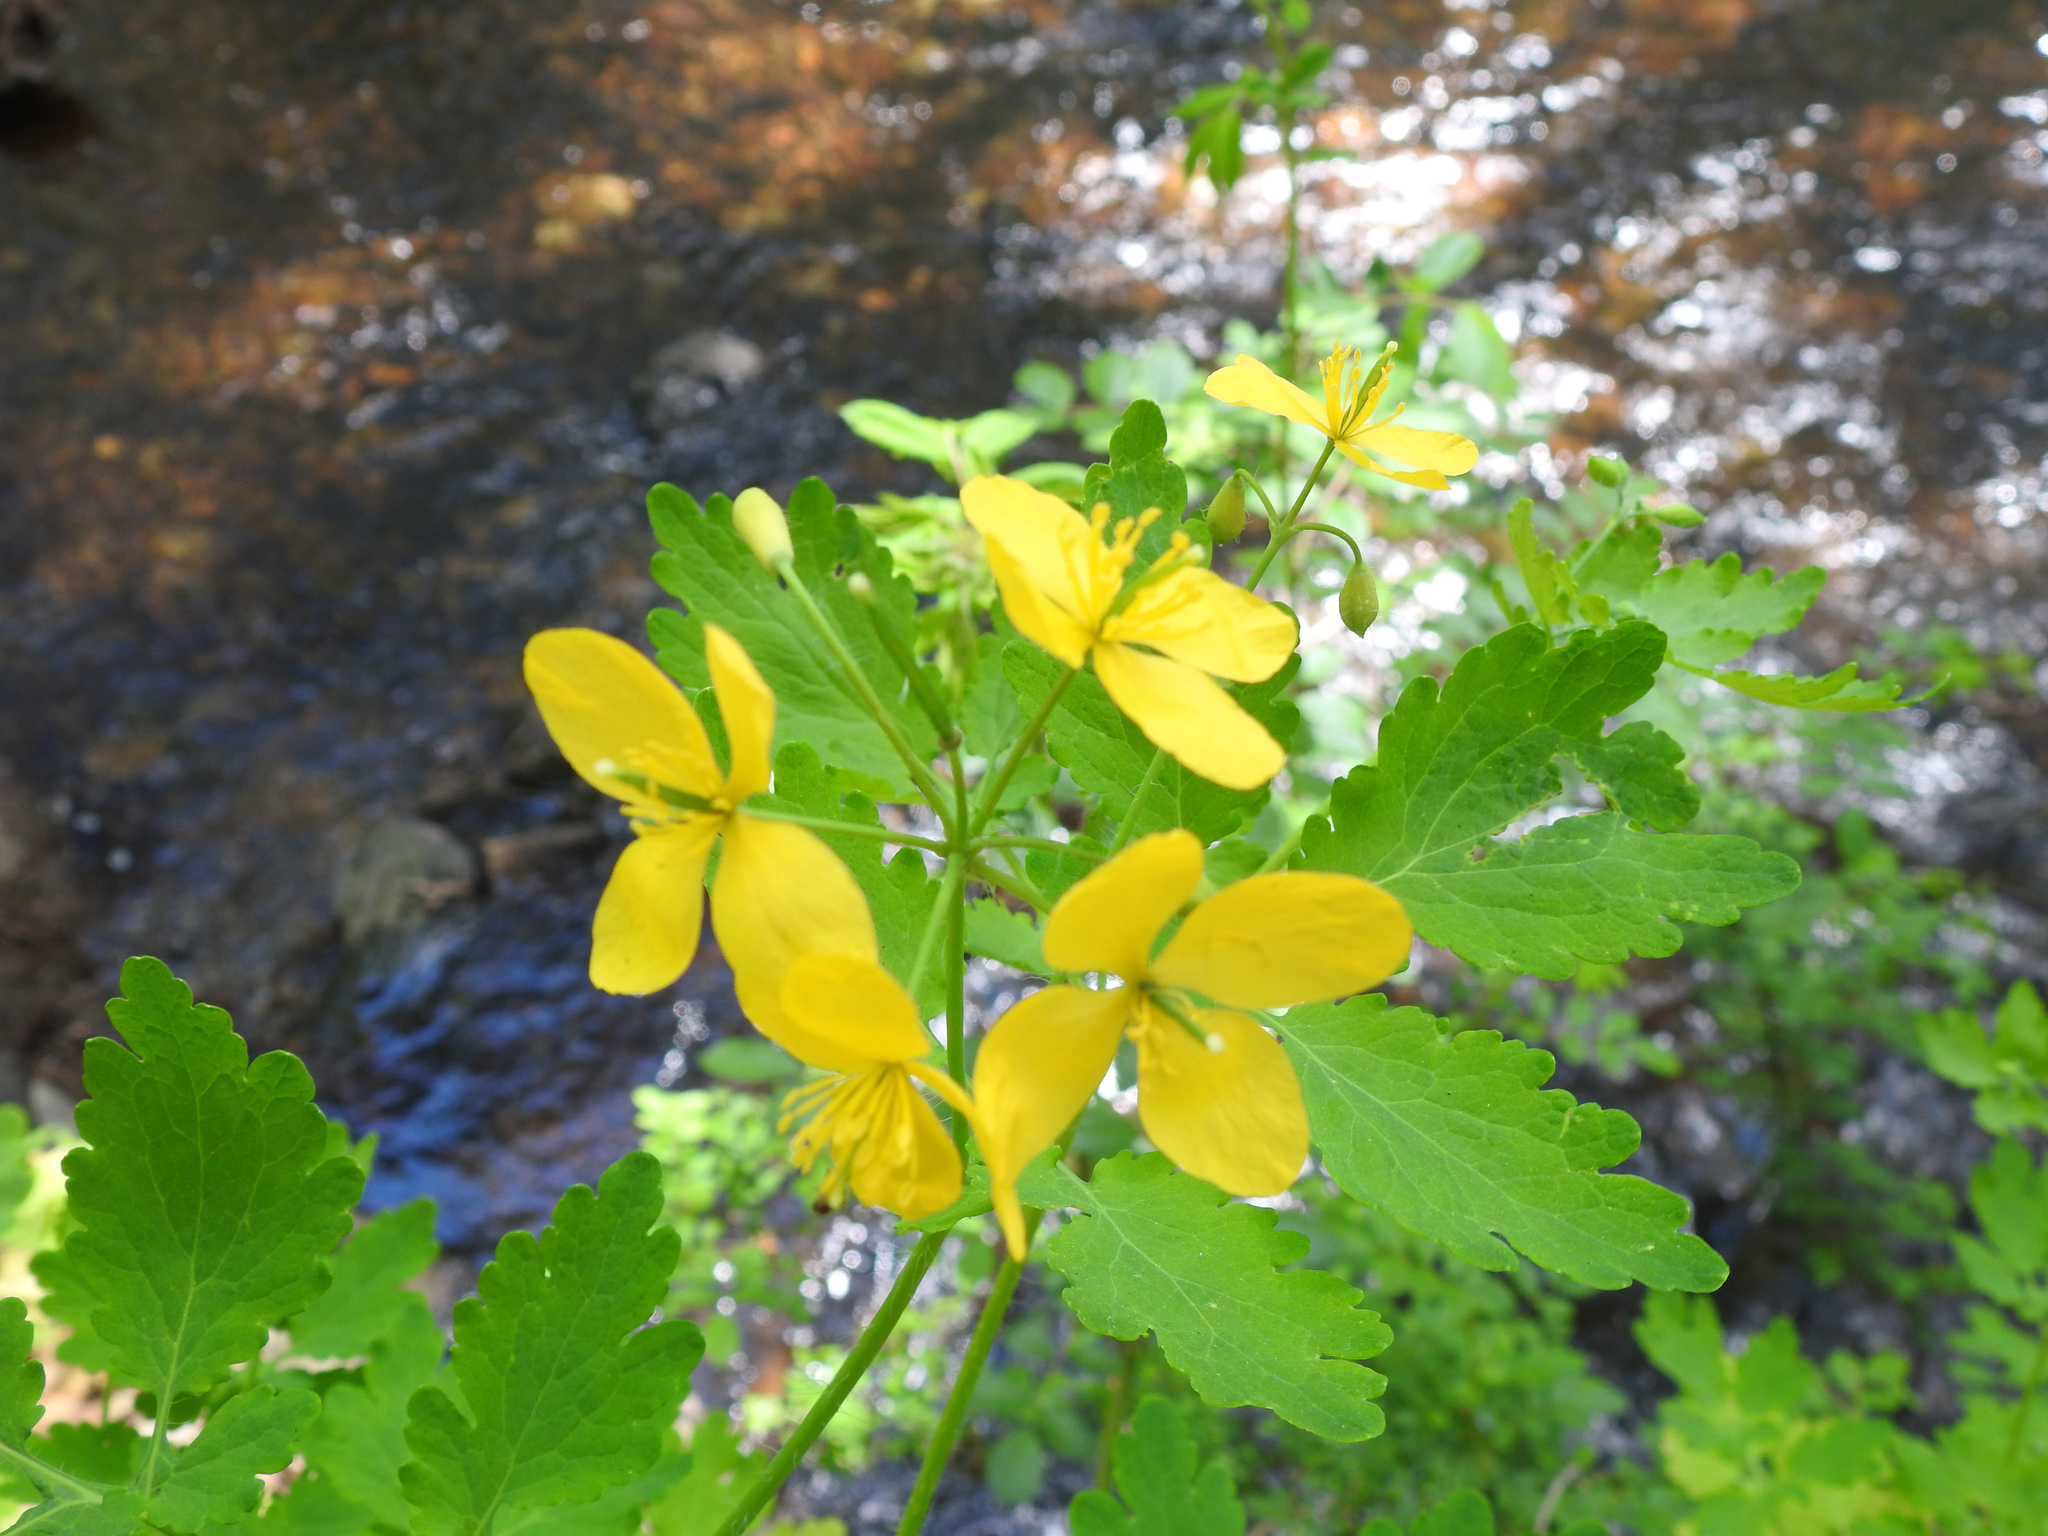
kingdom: Plantae
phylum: Tracheophyta
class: Magnoliopsida
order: Ranunculales
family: Papaveraceae
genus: Chelidonium
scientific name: Chelidonium majus
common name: Greater celandine
